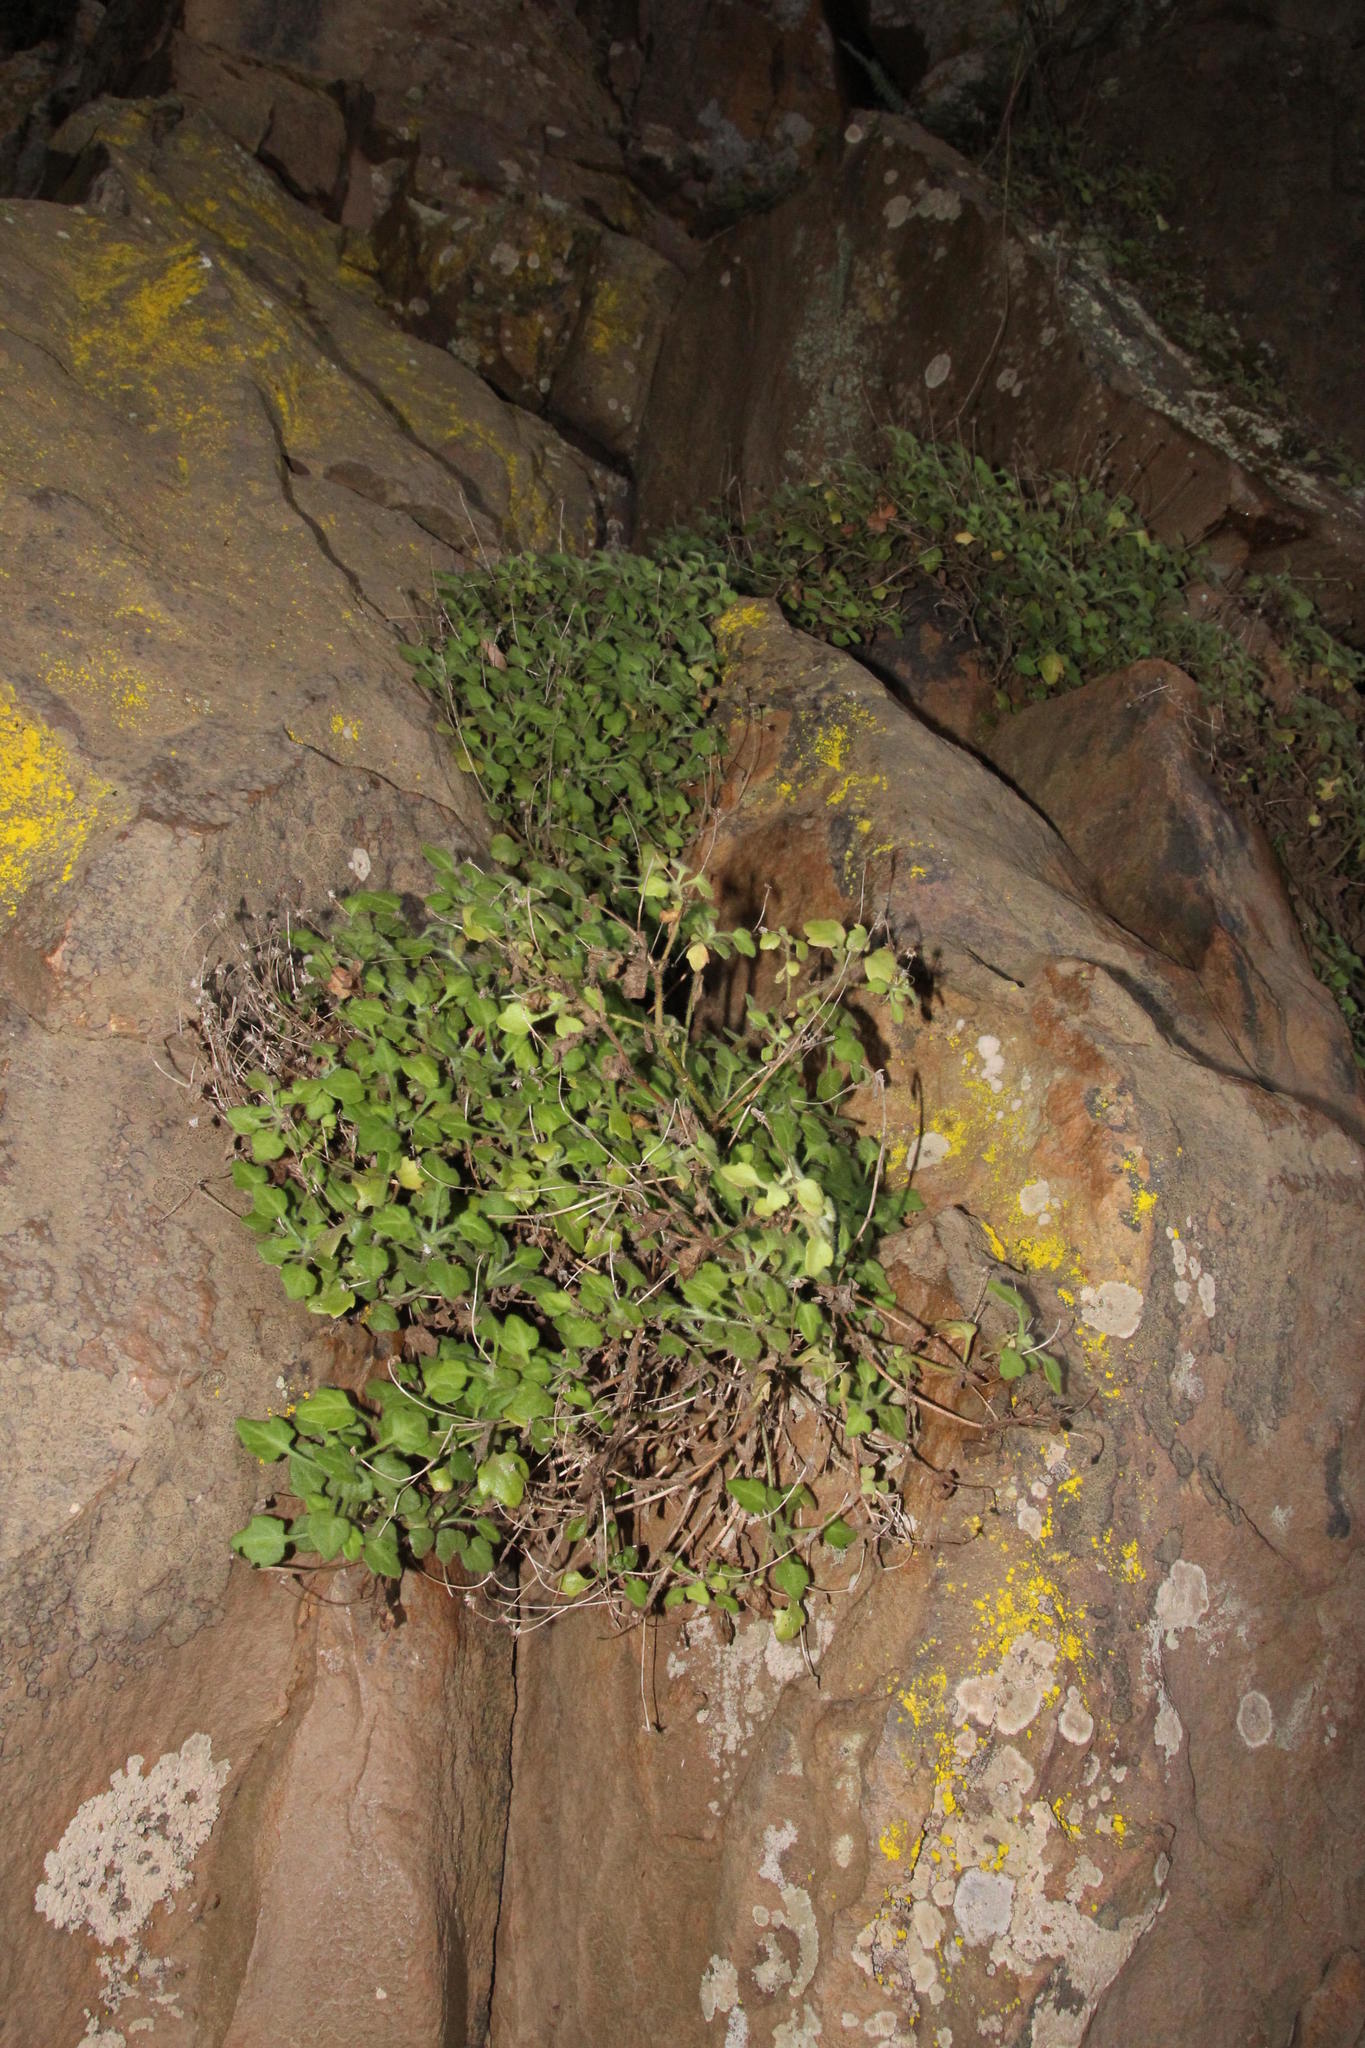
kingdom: Plantae
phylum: Tracheophyta
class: Magnoliopsida
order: Asterales
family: Asteraceae
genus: Felicia
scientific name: Felicia cymbalariae
